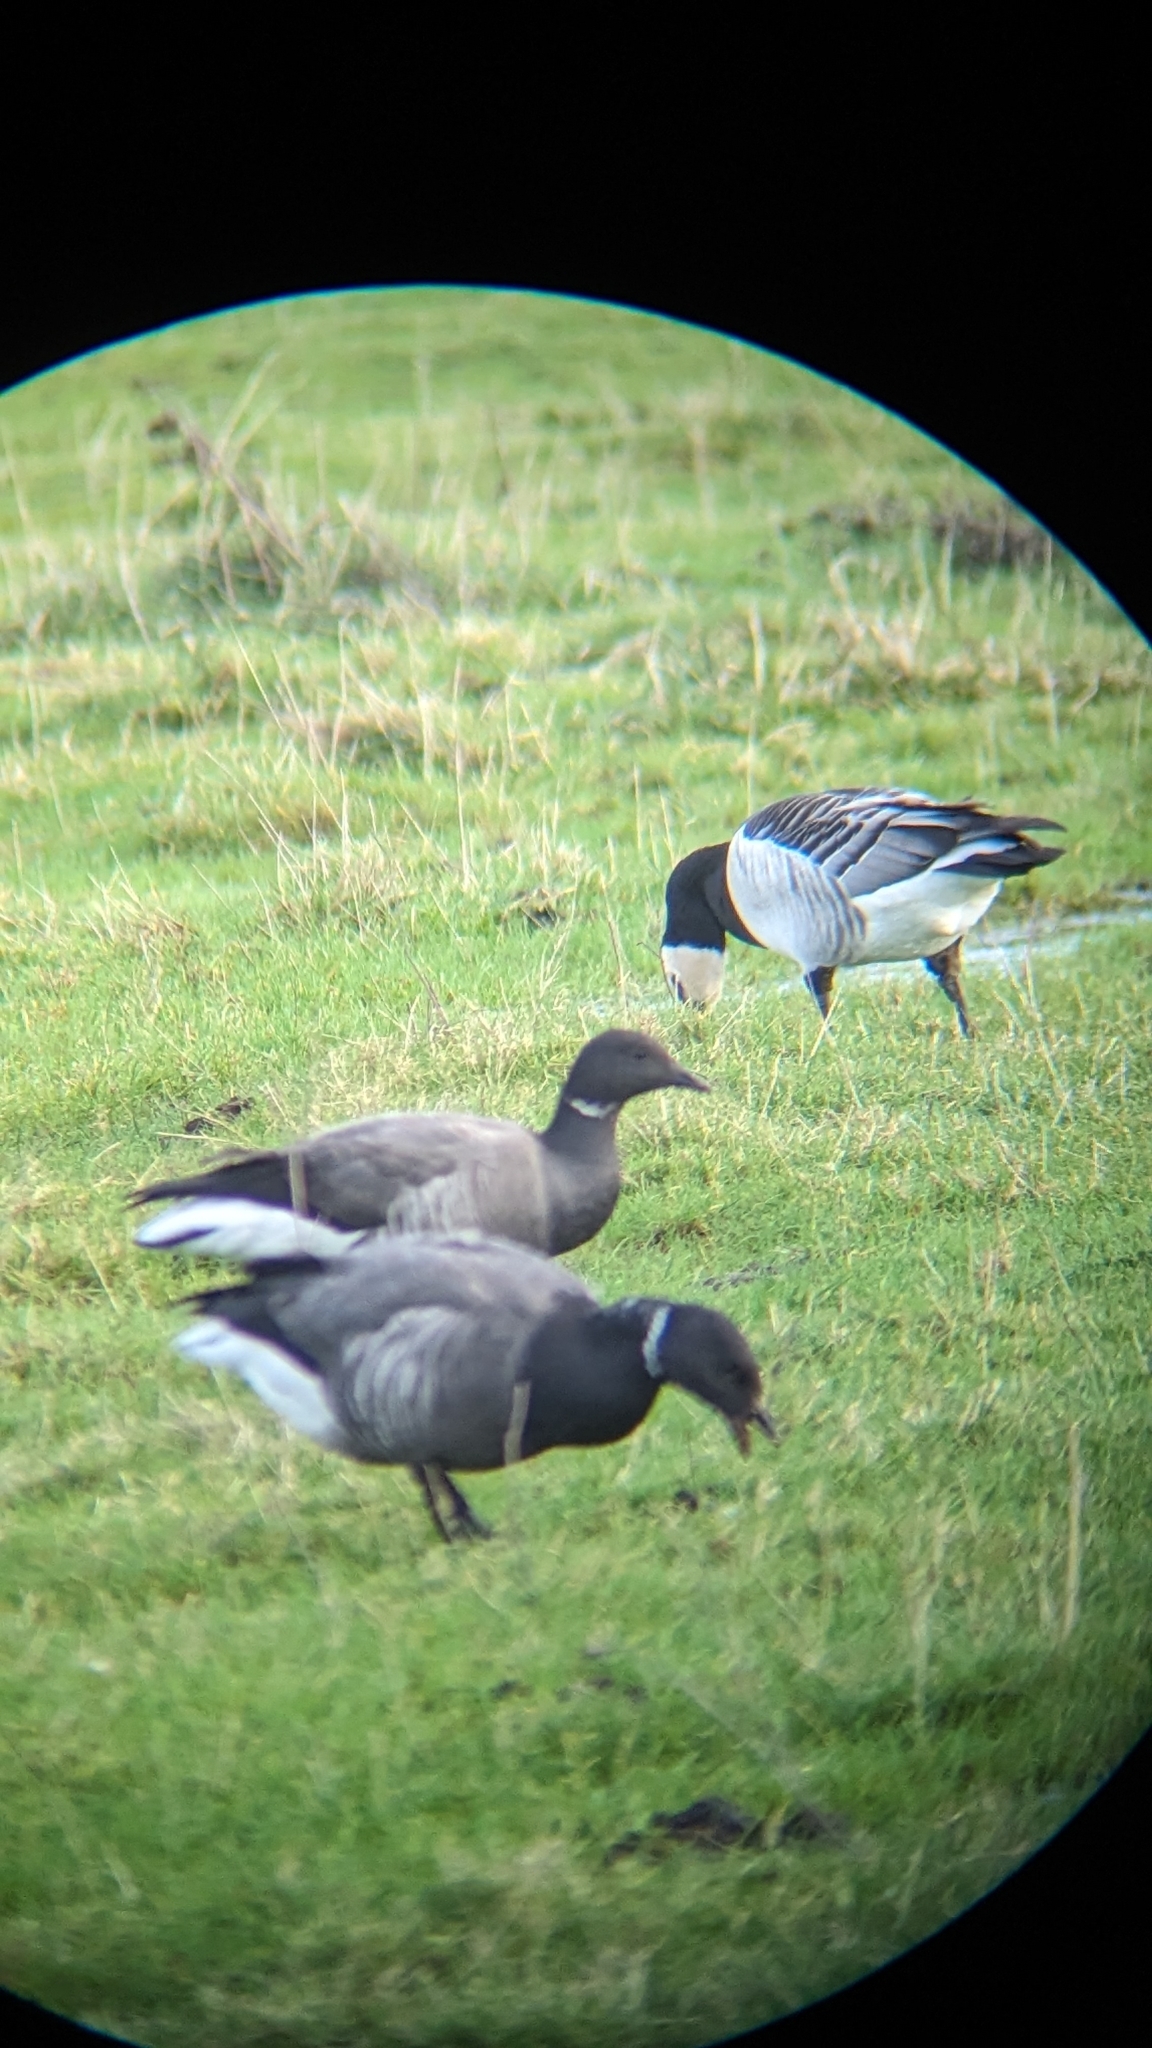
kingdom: Animalia
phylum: Chordata
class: Aves
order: Anseriformes
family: Anatidae
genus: Branta
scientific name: Branta bernicla
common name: Brant goose
